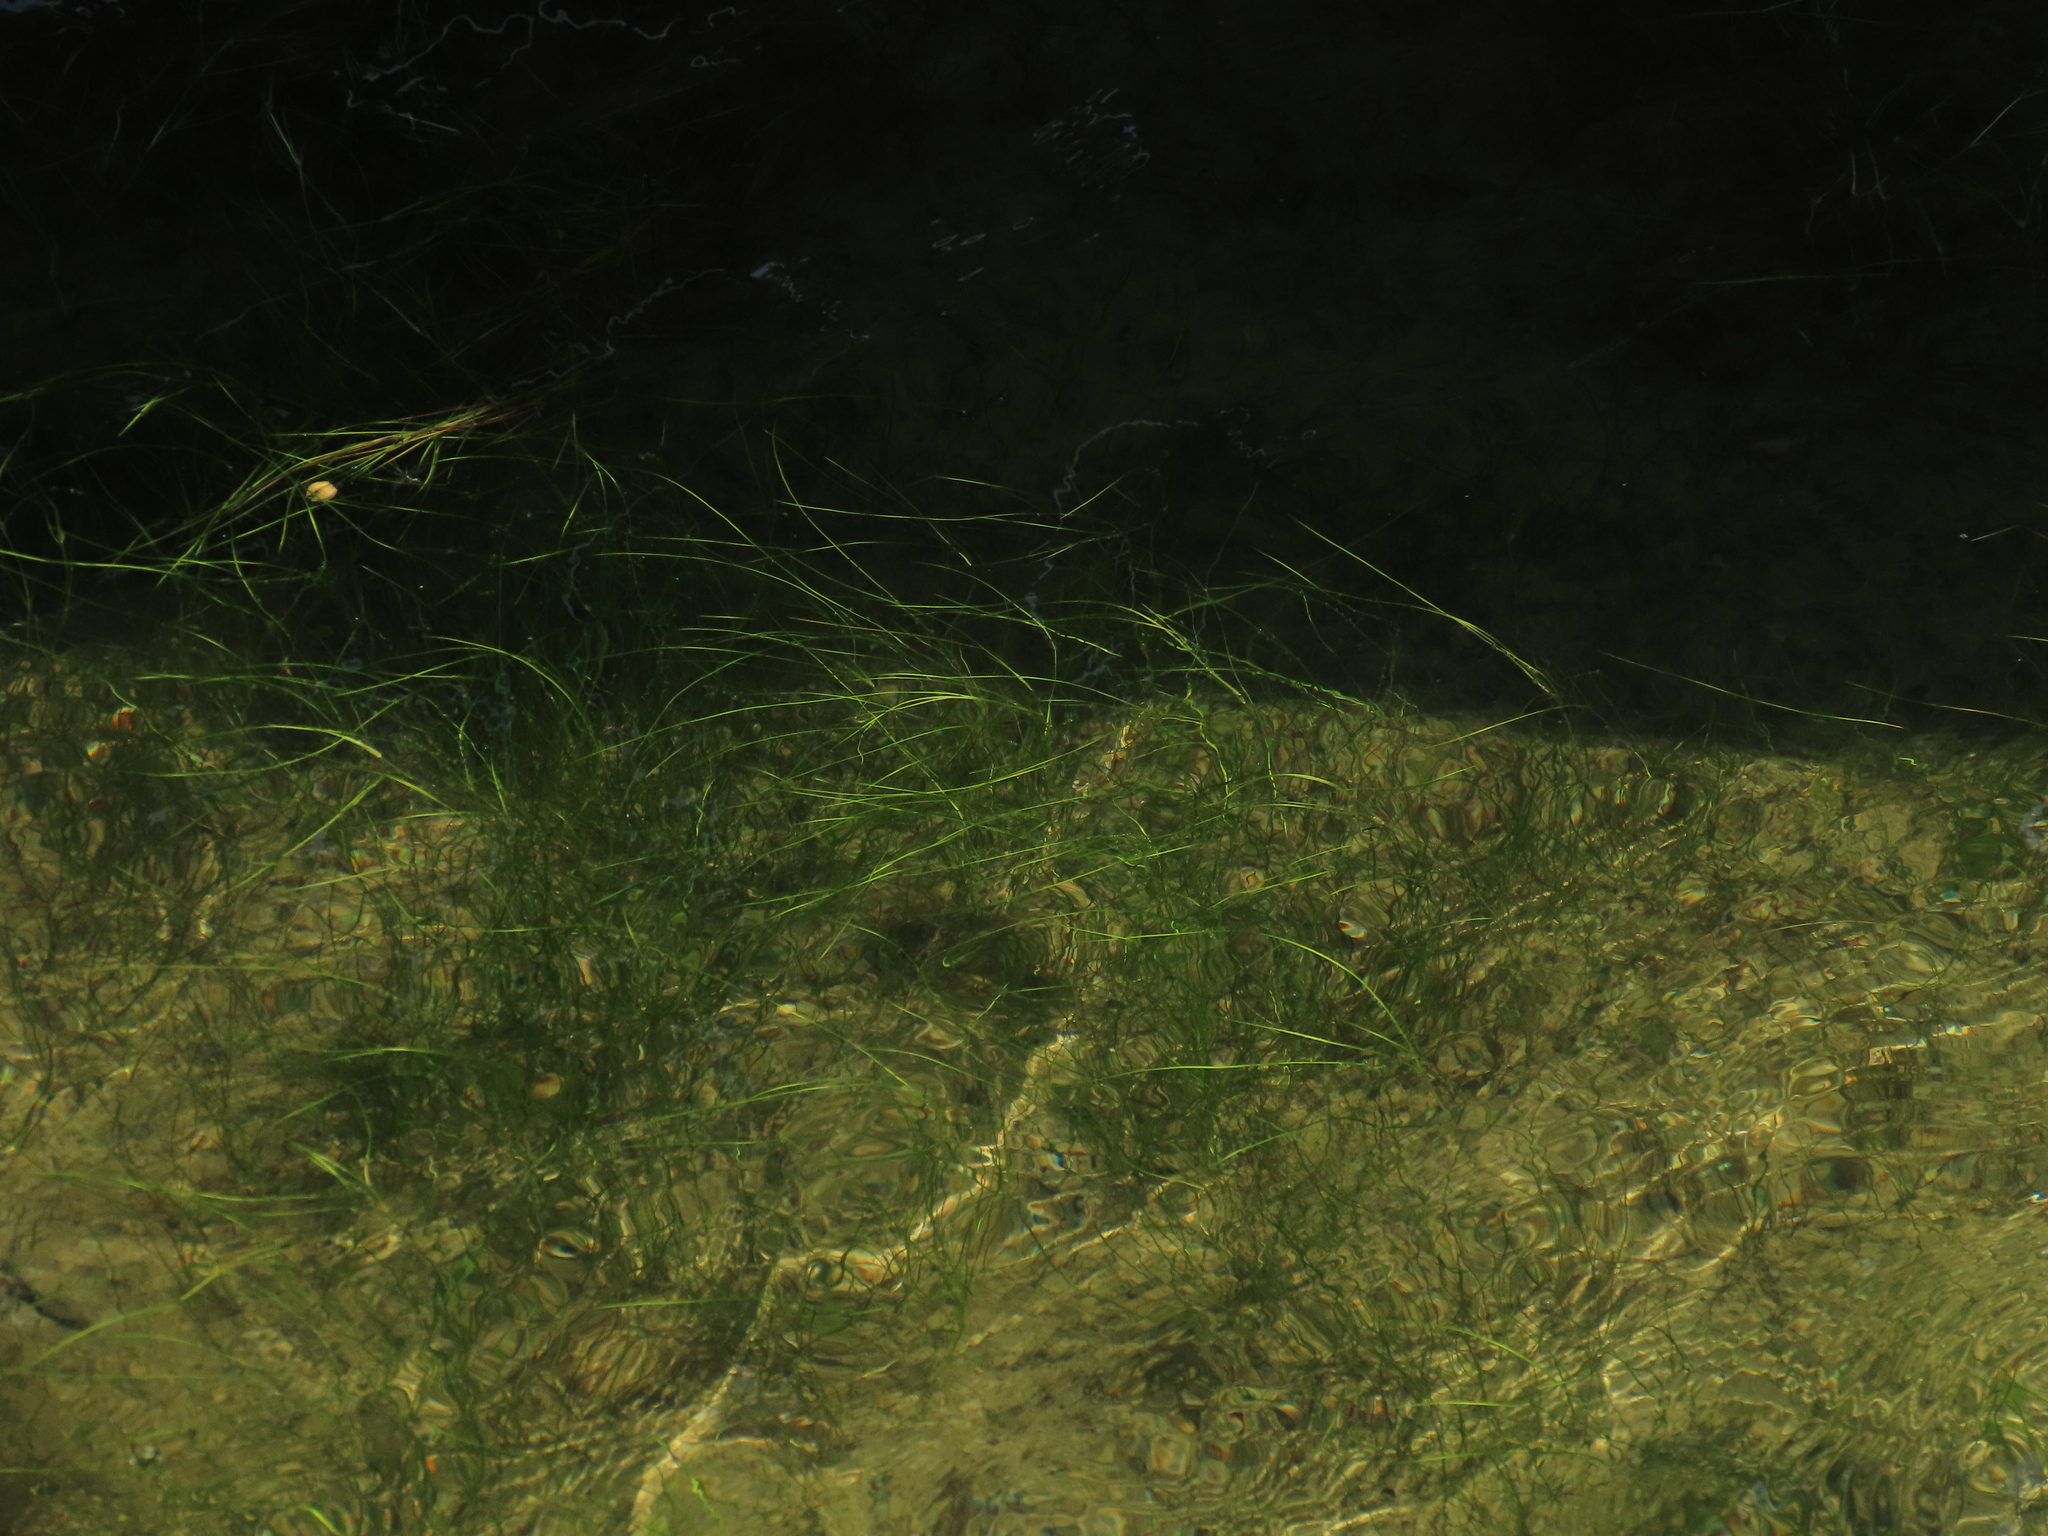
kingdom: Plantae
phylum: Tracheophyta
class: Liliopsida
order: Alismatales
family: Ruppiaceae
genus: Ruppia
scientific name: Ruppia maritima
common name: Beaked tasselweed
